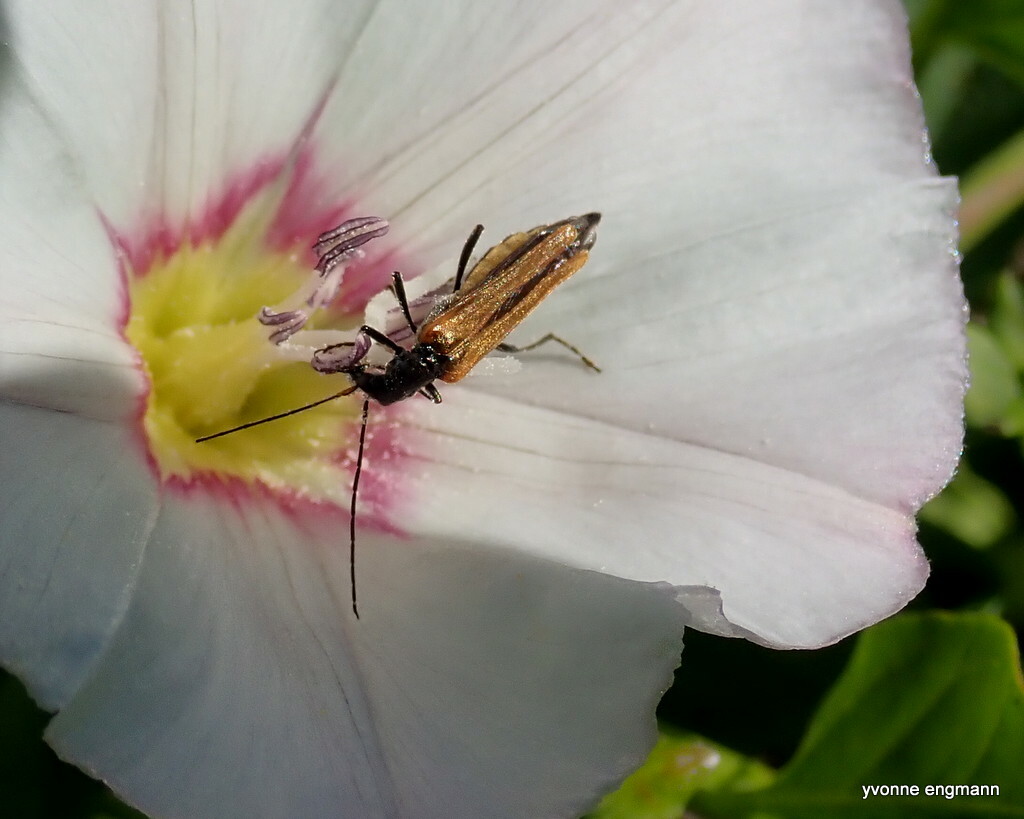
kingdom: Animalia
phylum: Arthropoda
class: Insecta
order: Coleoptera
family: Oedemeridae
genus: Oedemera
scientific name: Oedemera femorata
